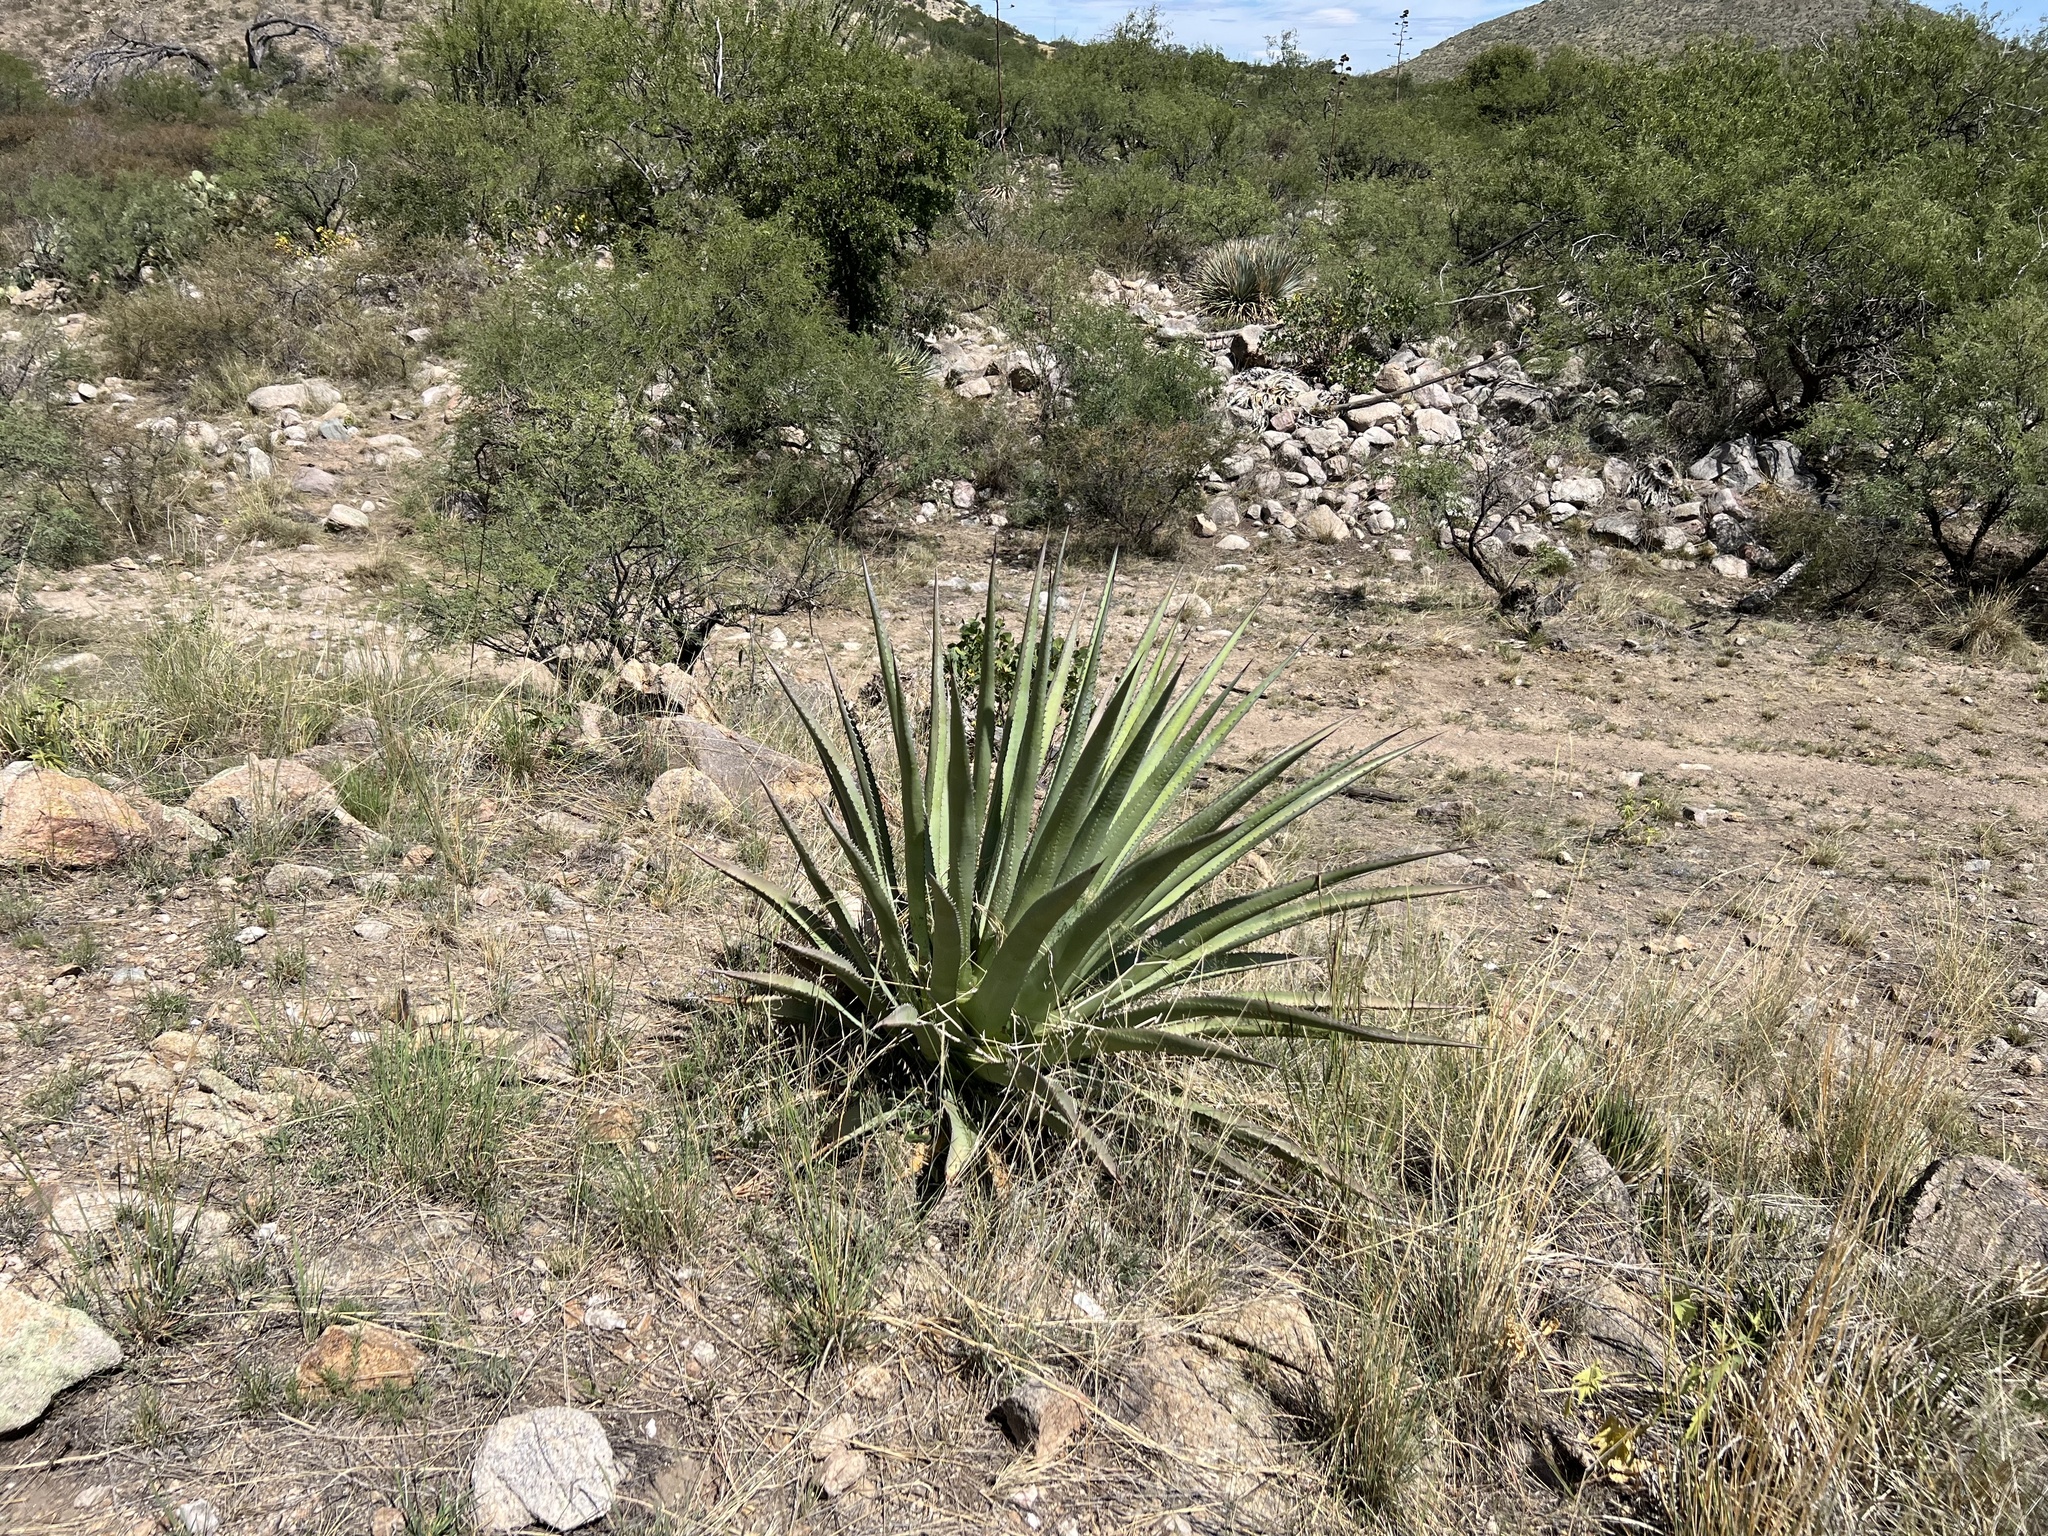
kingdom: Plantae
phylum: Tracheophyta
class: Liliopsida
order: Asparagales
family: Asparagaceae
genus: Agave
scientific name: Agave palmeri
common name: Palmer agave
